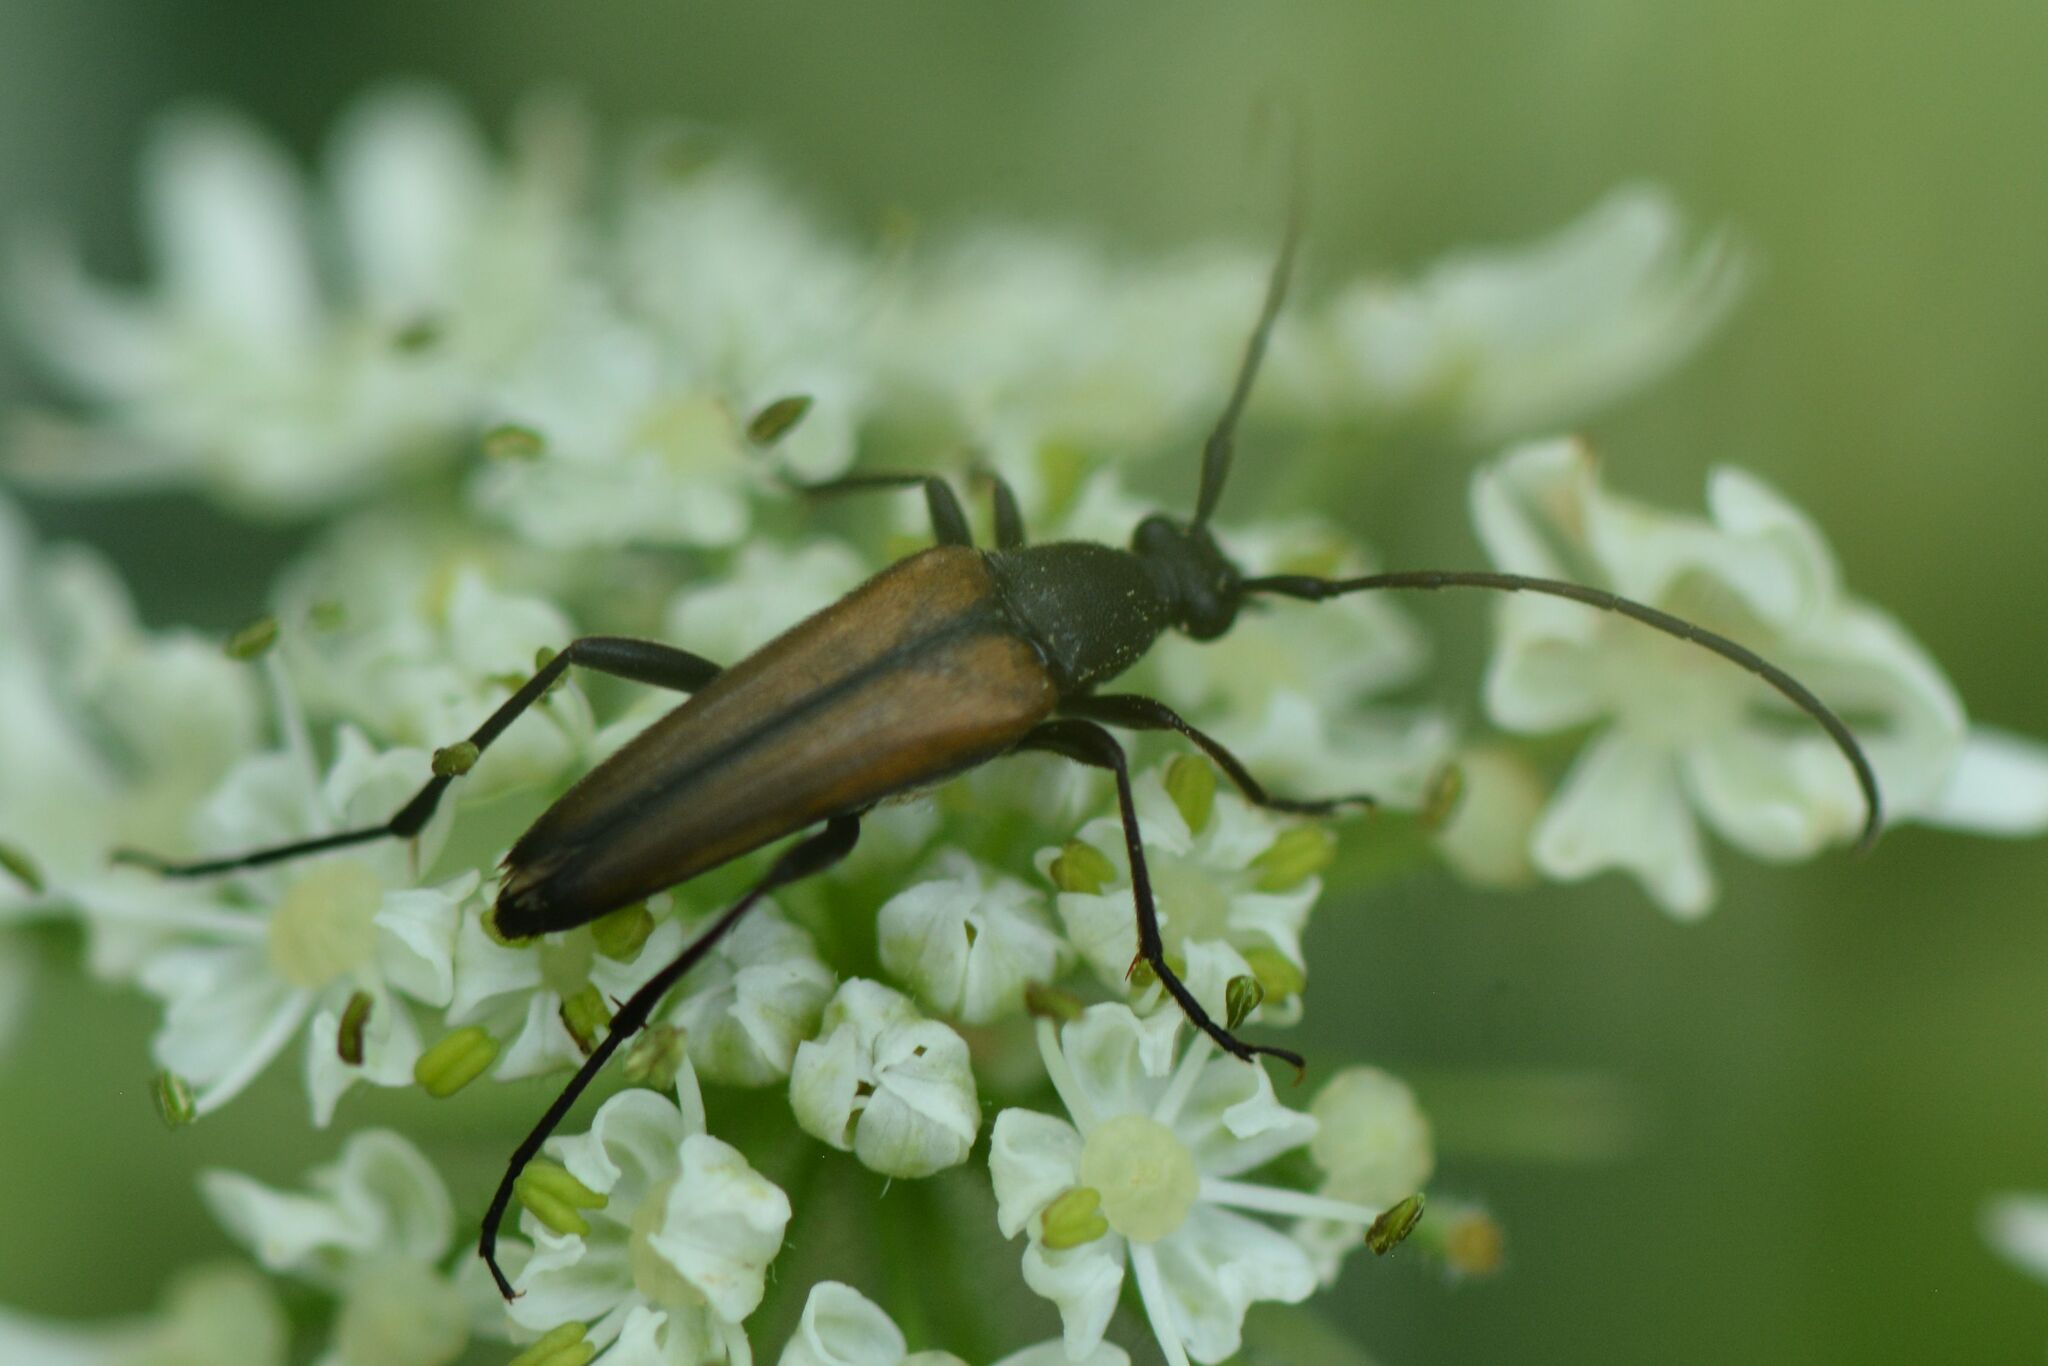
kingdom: Animalia
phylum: Arthropoda
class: Insecta
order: Coleoptera
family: Cerambycidae
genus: Stenurella
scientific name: Stenurella melanura
